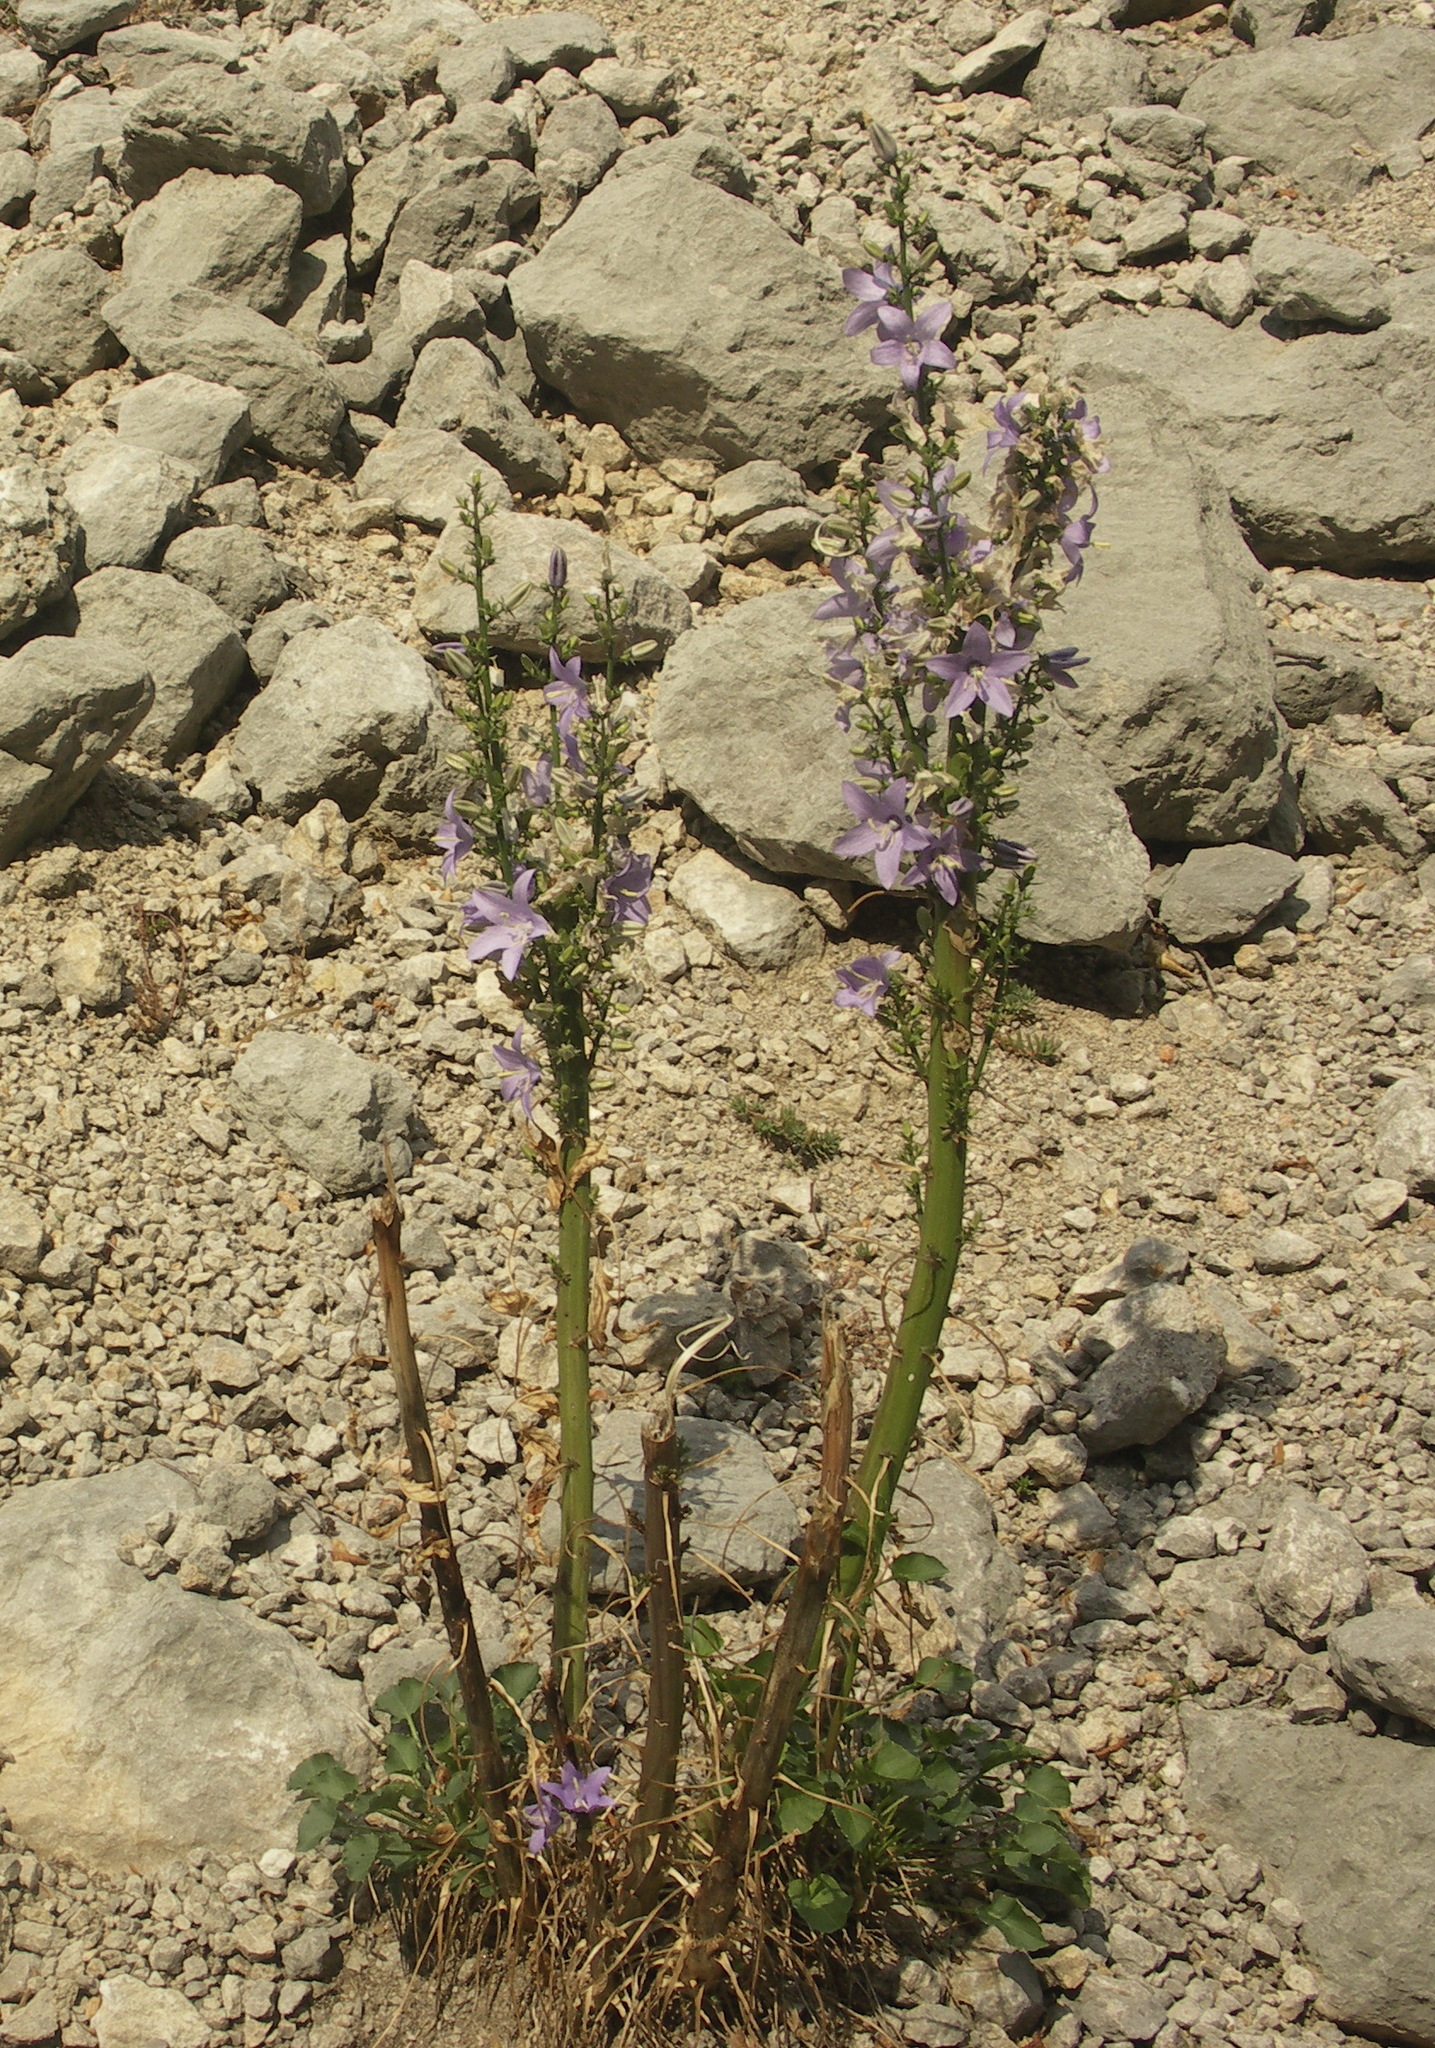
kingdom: Plantae
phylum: Tracheophyta
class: Magnoliopsida
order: Asterales
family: Campanulaceae
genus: Campanula
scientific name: Campanula pyramidalis
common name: Chimney bellflower
